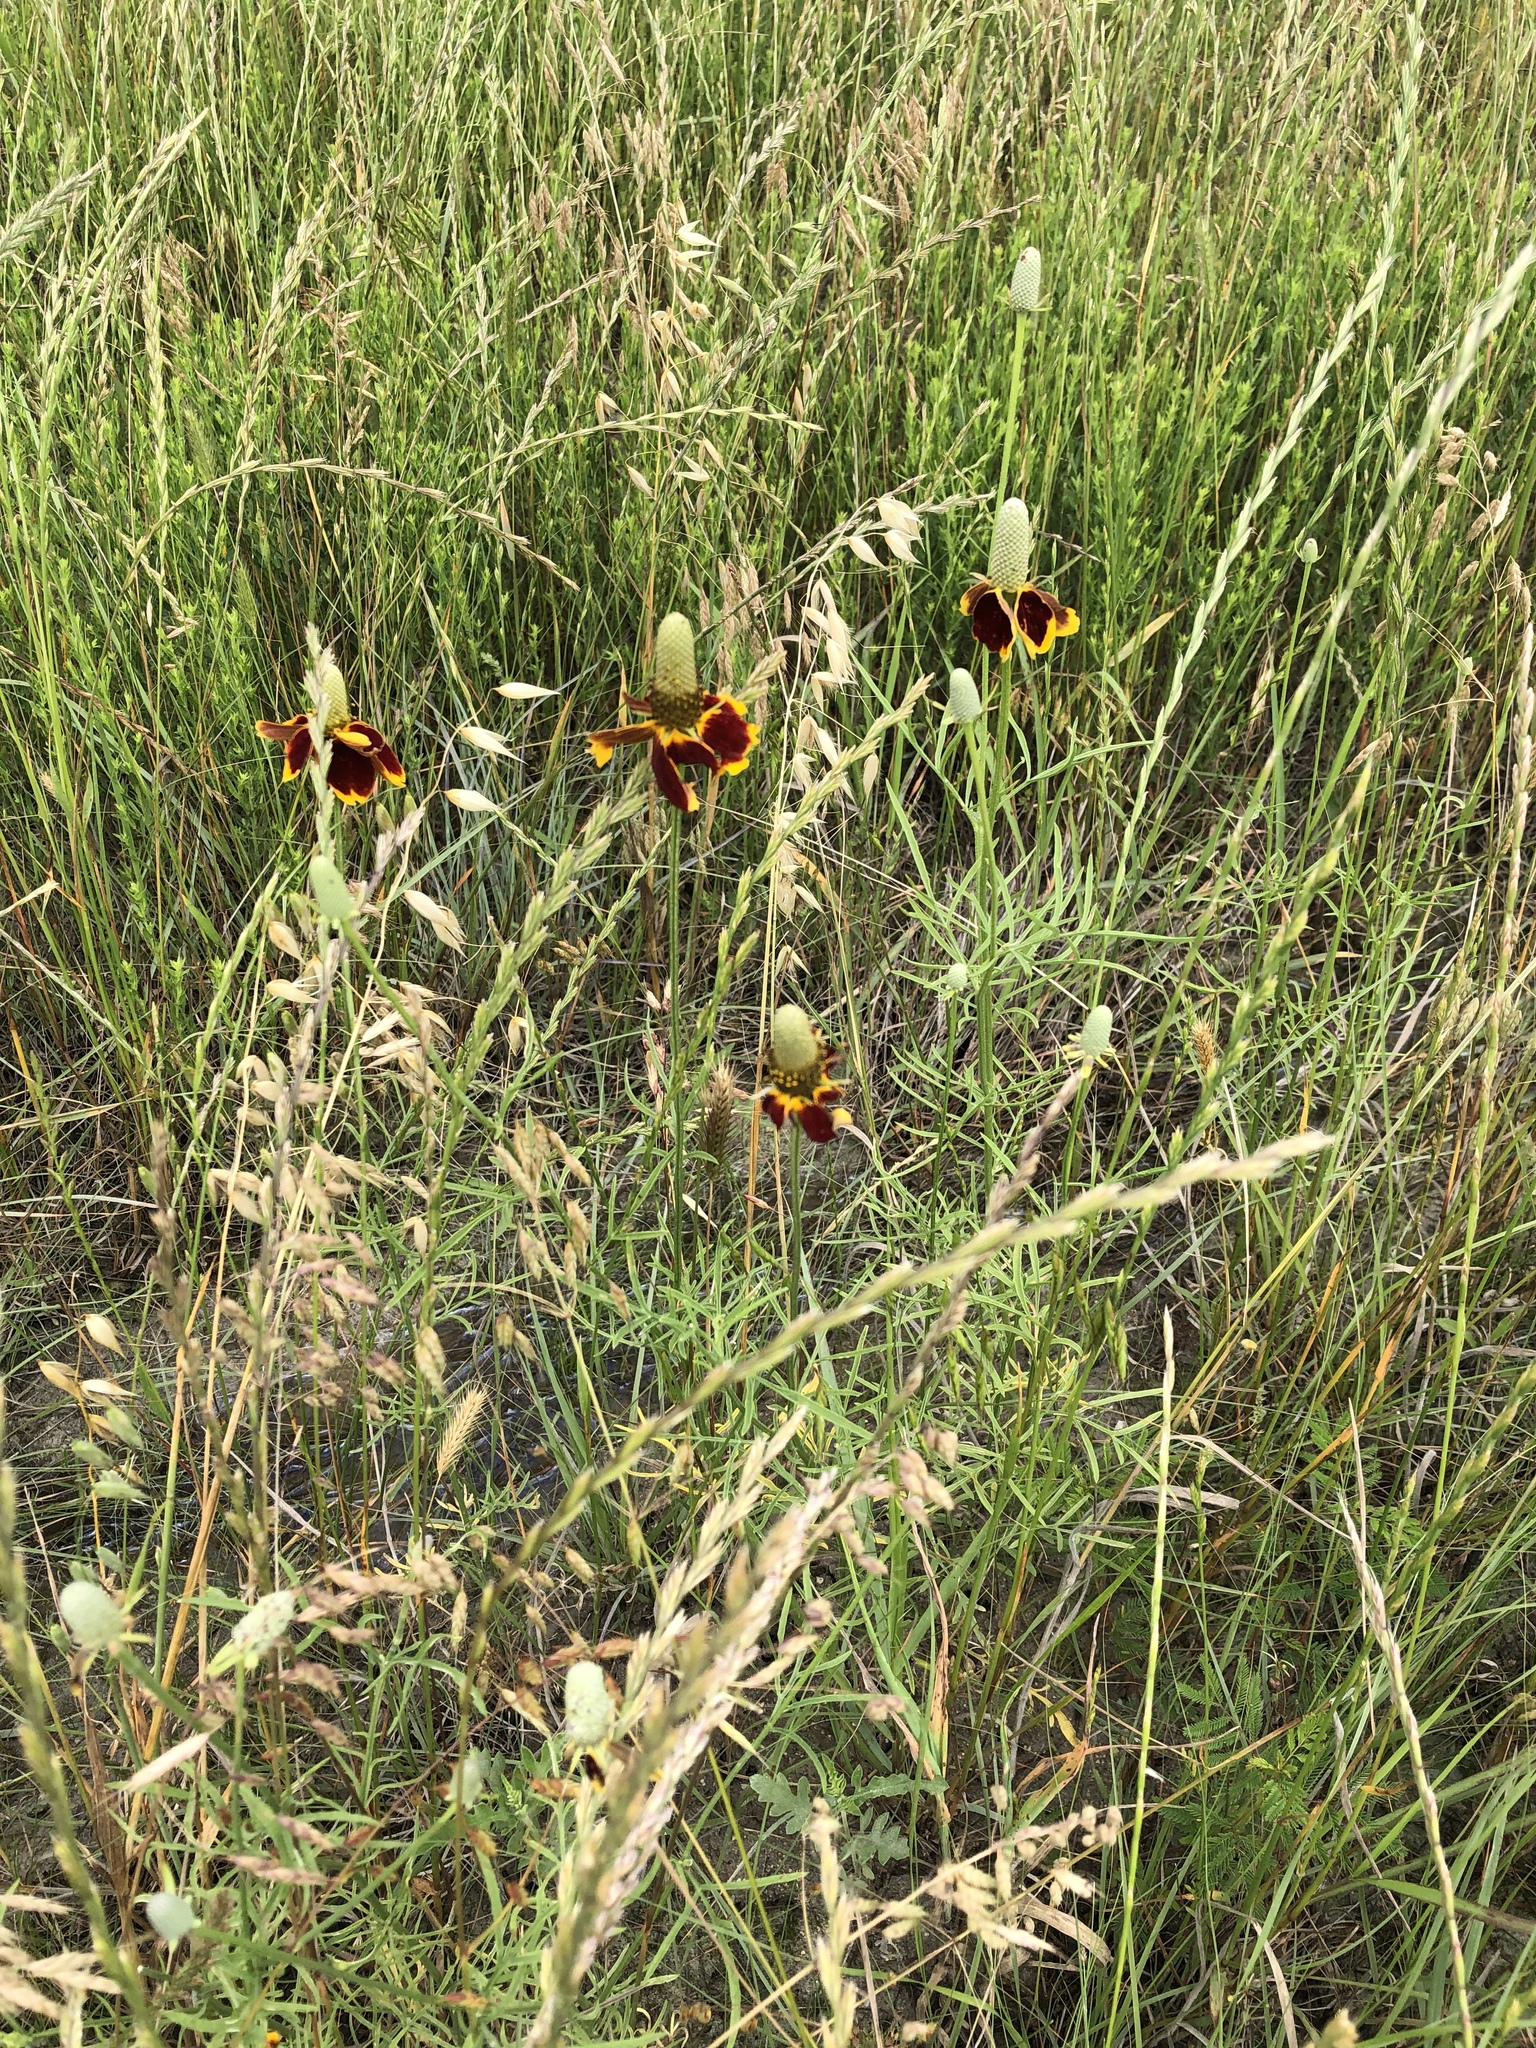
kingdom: Plantae
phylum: Tracheophyta
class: Magnoliopsida
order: Asterales
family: Asteraceae
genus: Ratibida
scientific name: Ratibida columnifera
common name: Prairie coneflower
